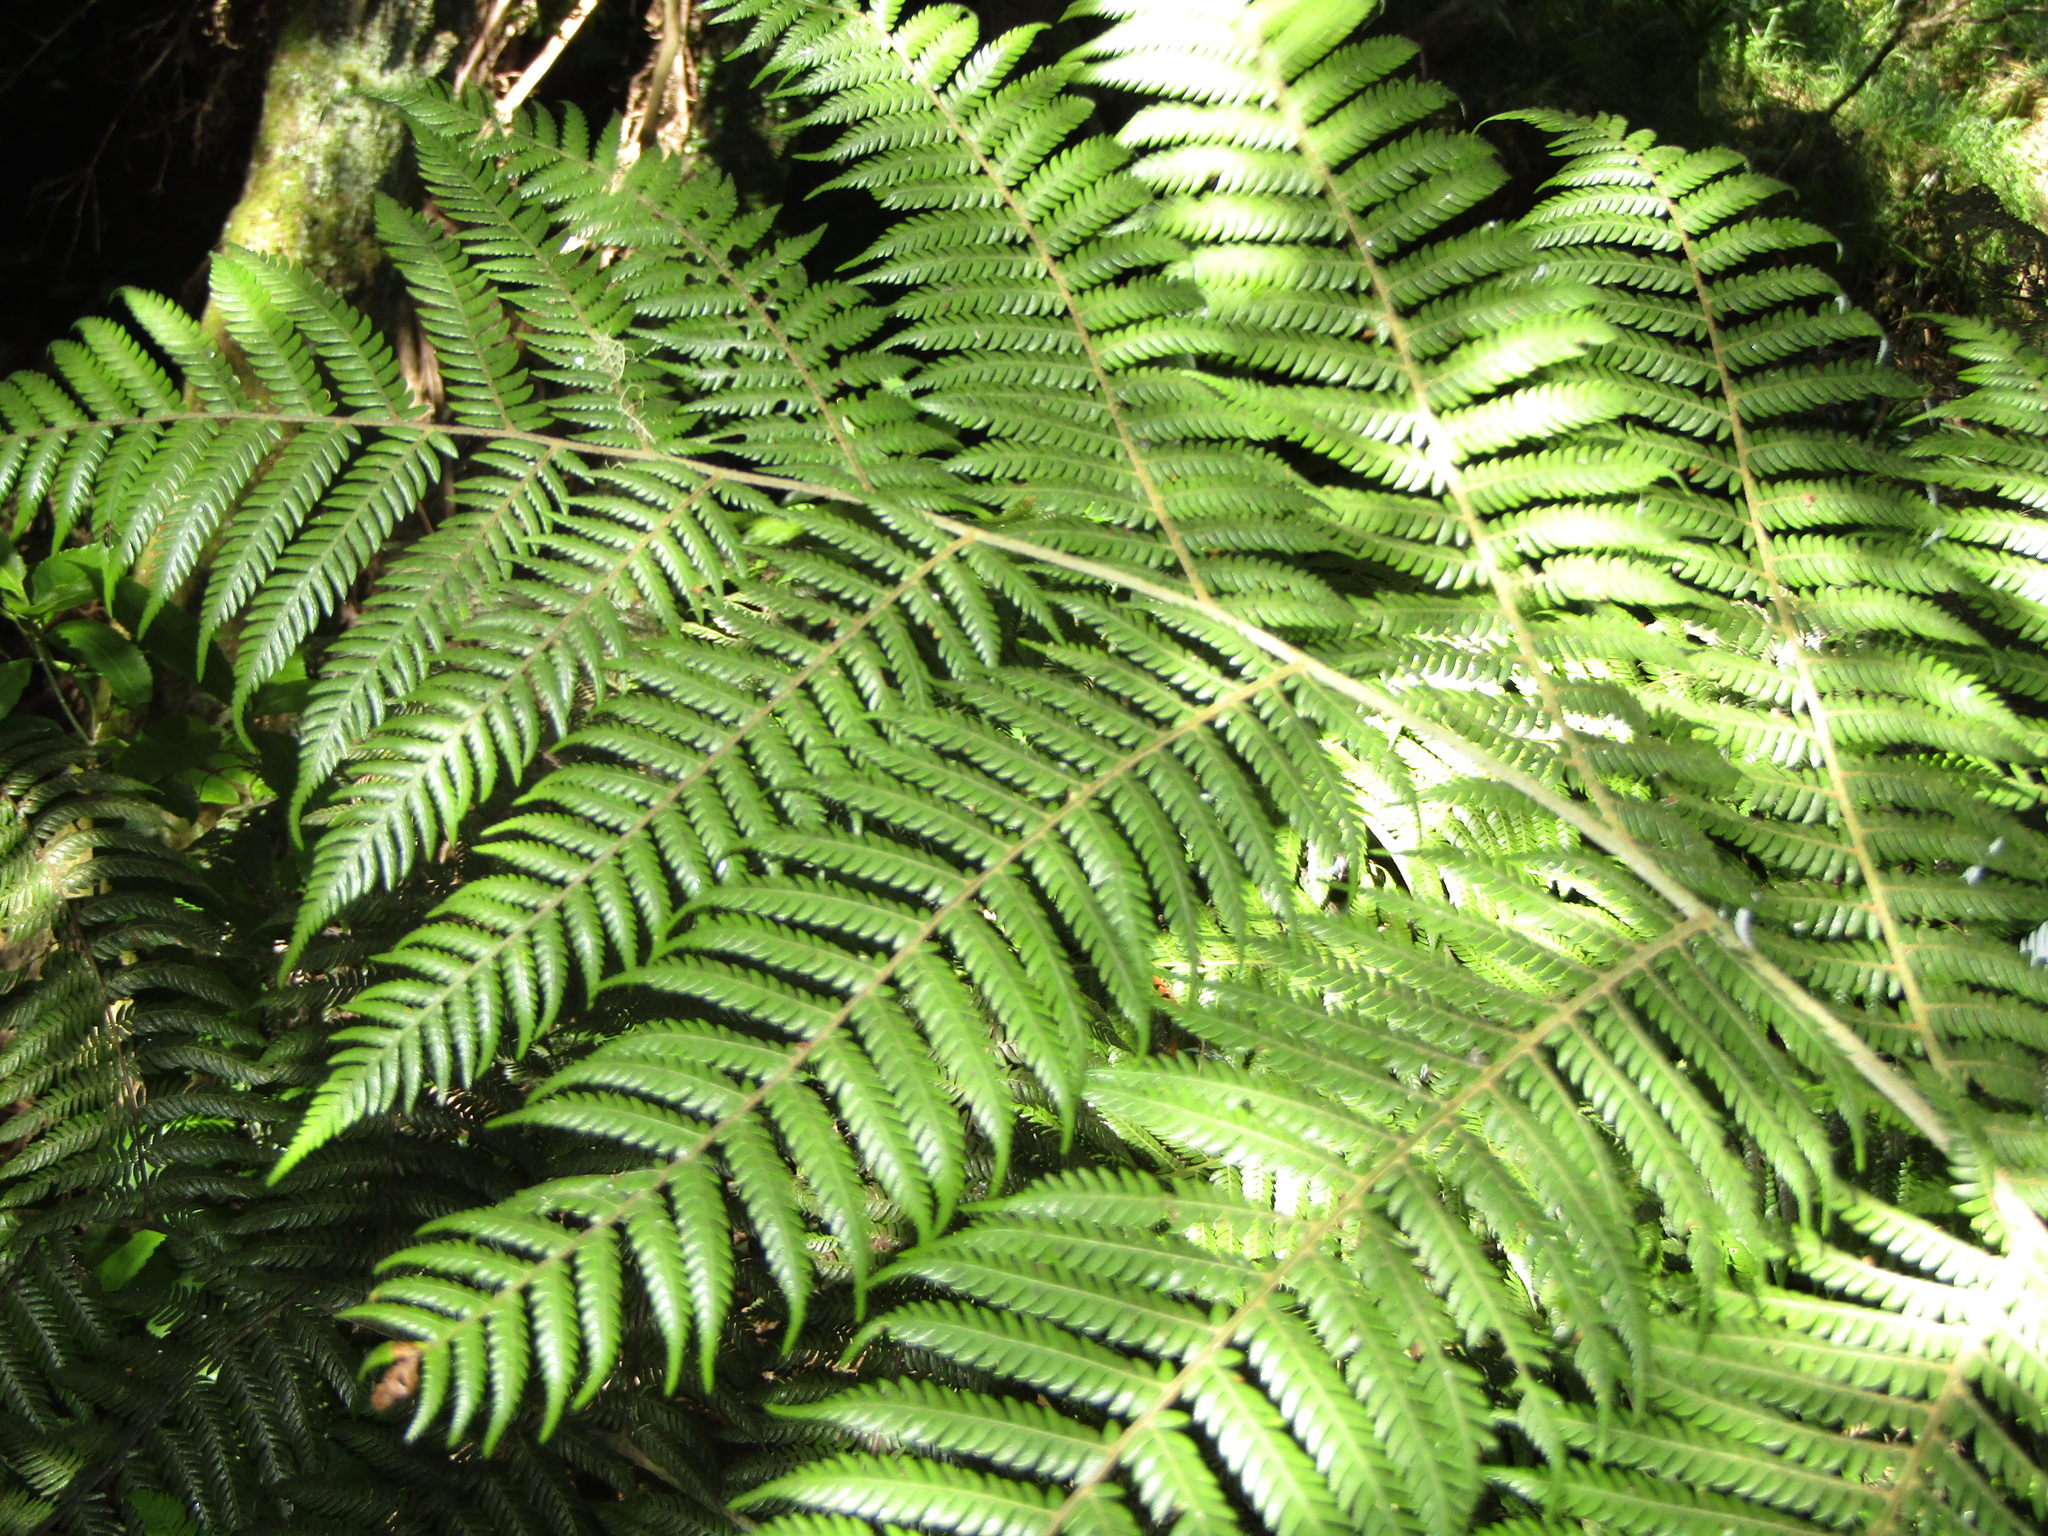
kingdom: Plantae
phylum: Tracheophyta
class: Polypodiopsida
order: Cyatheales
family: Cyatheaceae
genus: Alsophila
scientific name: Alsophila dealbata
